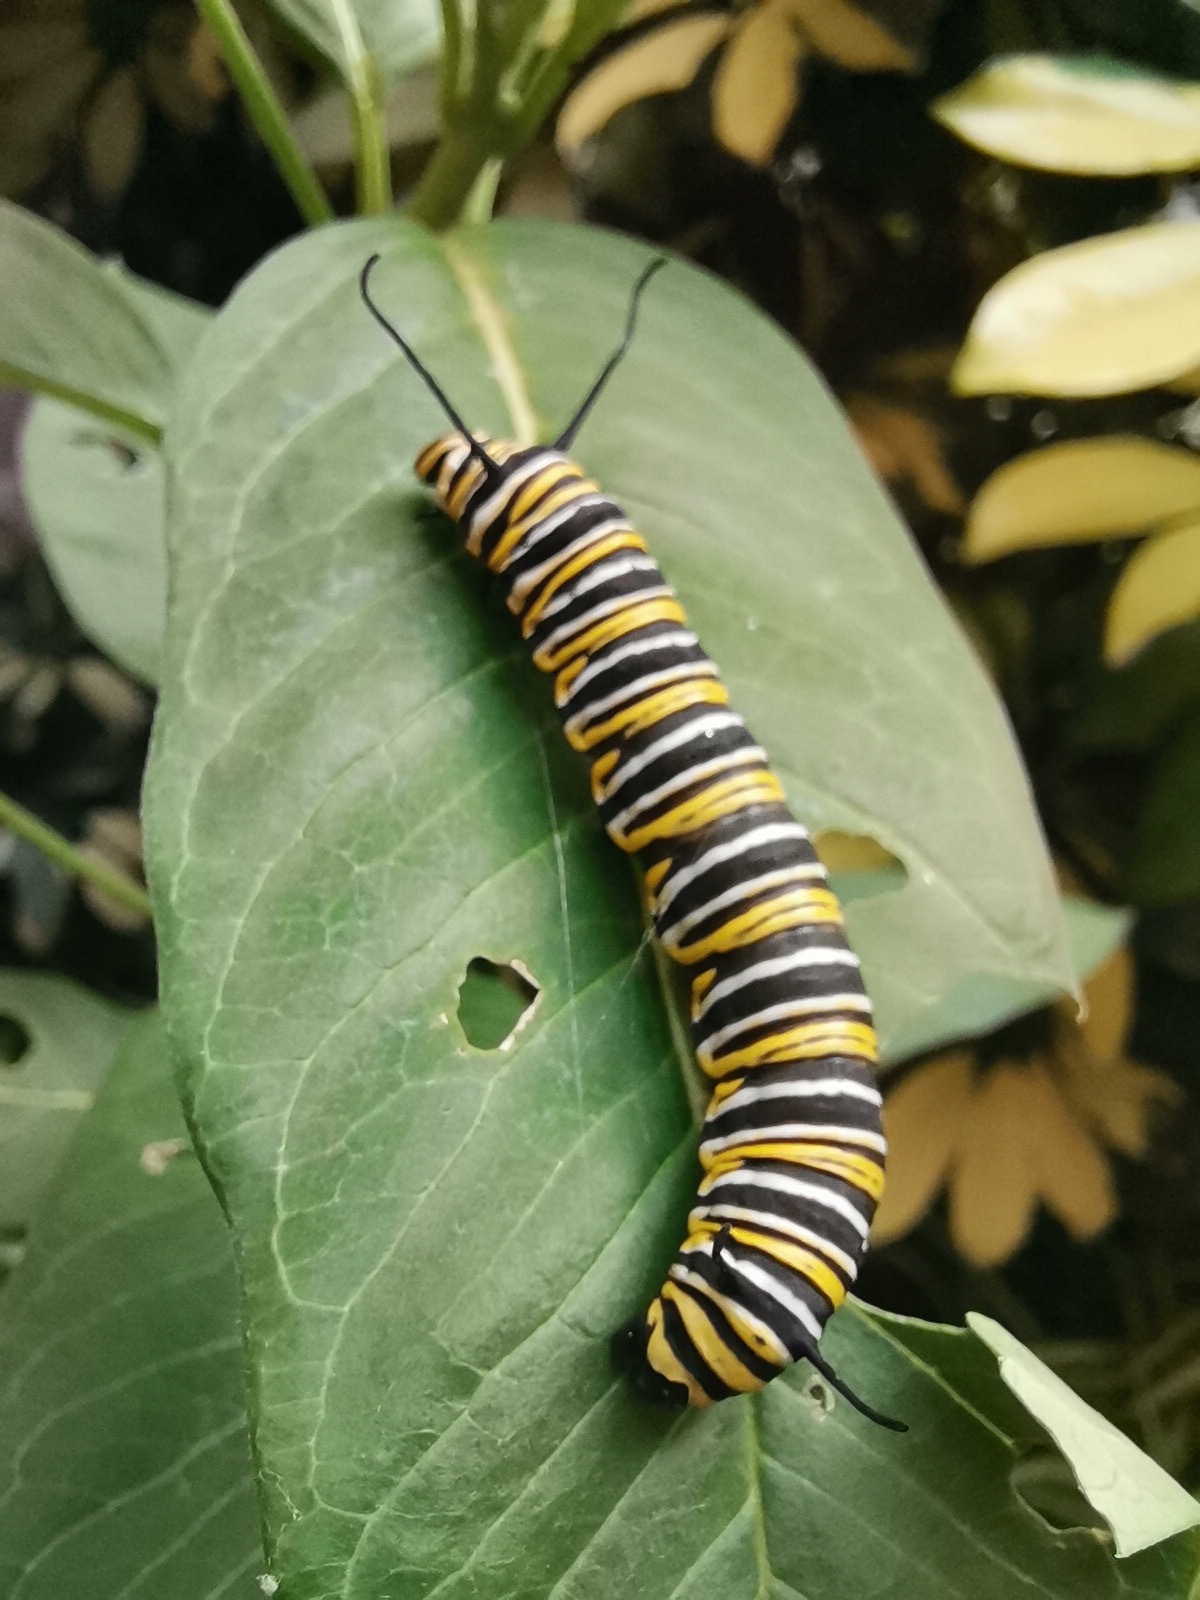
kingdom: Animalia
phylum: Arthropoda
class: Insecta
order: Lepidoptera
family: Nymphalidae
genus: Danaus
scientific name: Danaus plexippus
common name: Monarch
